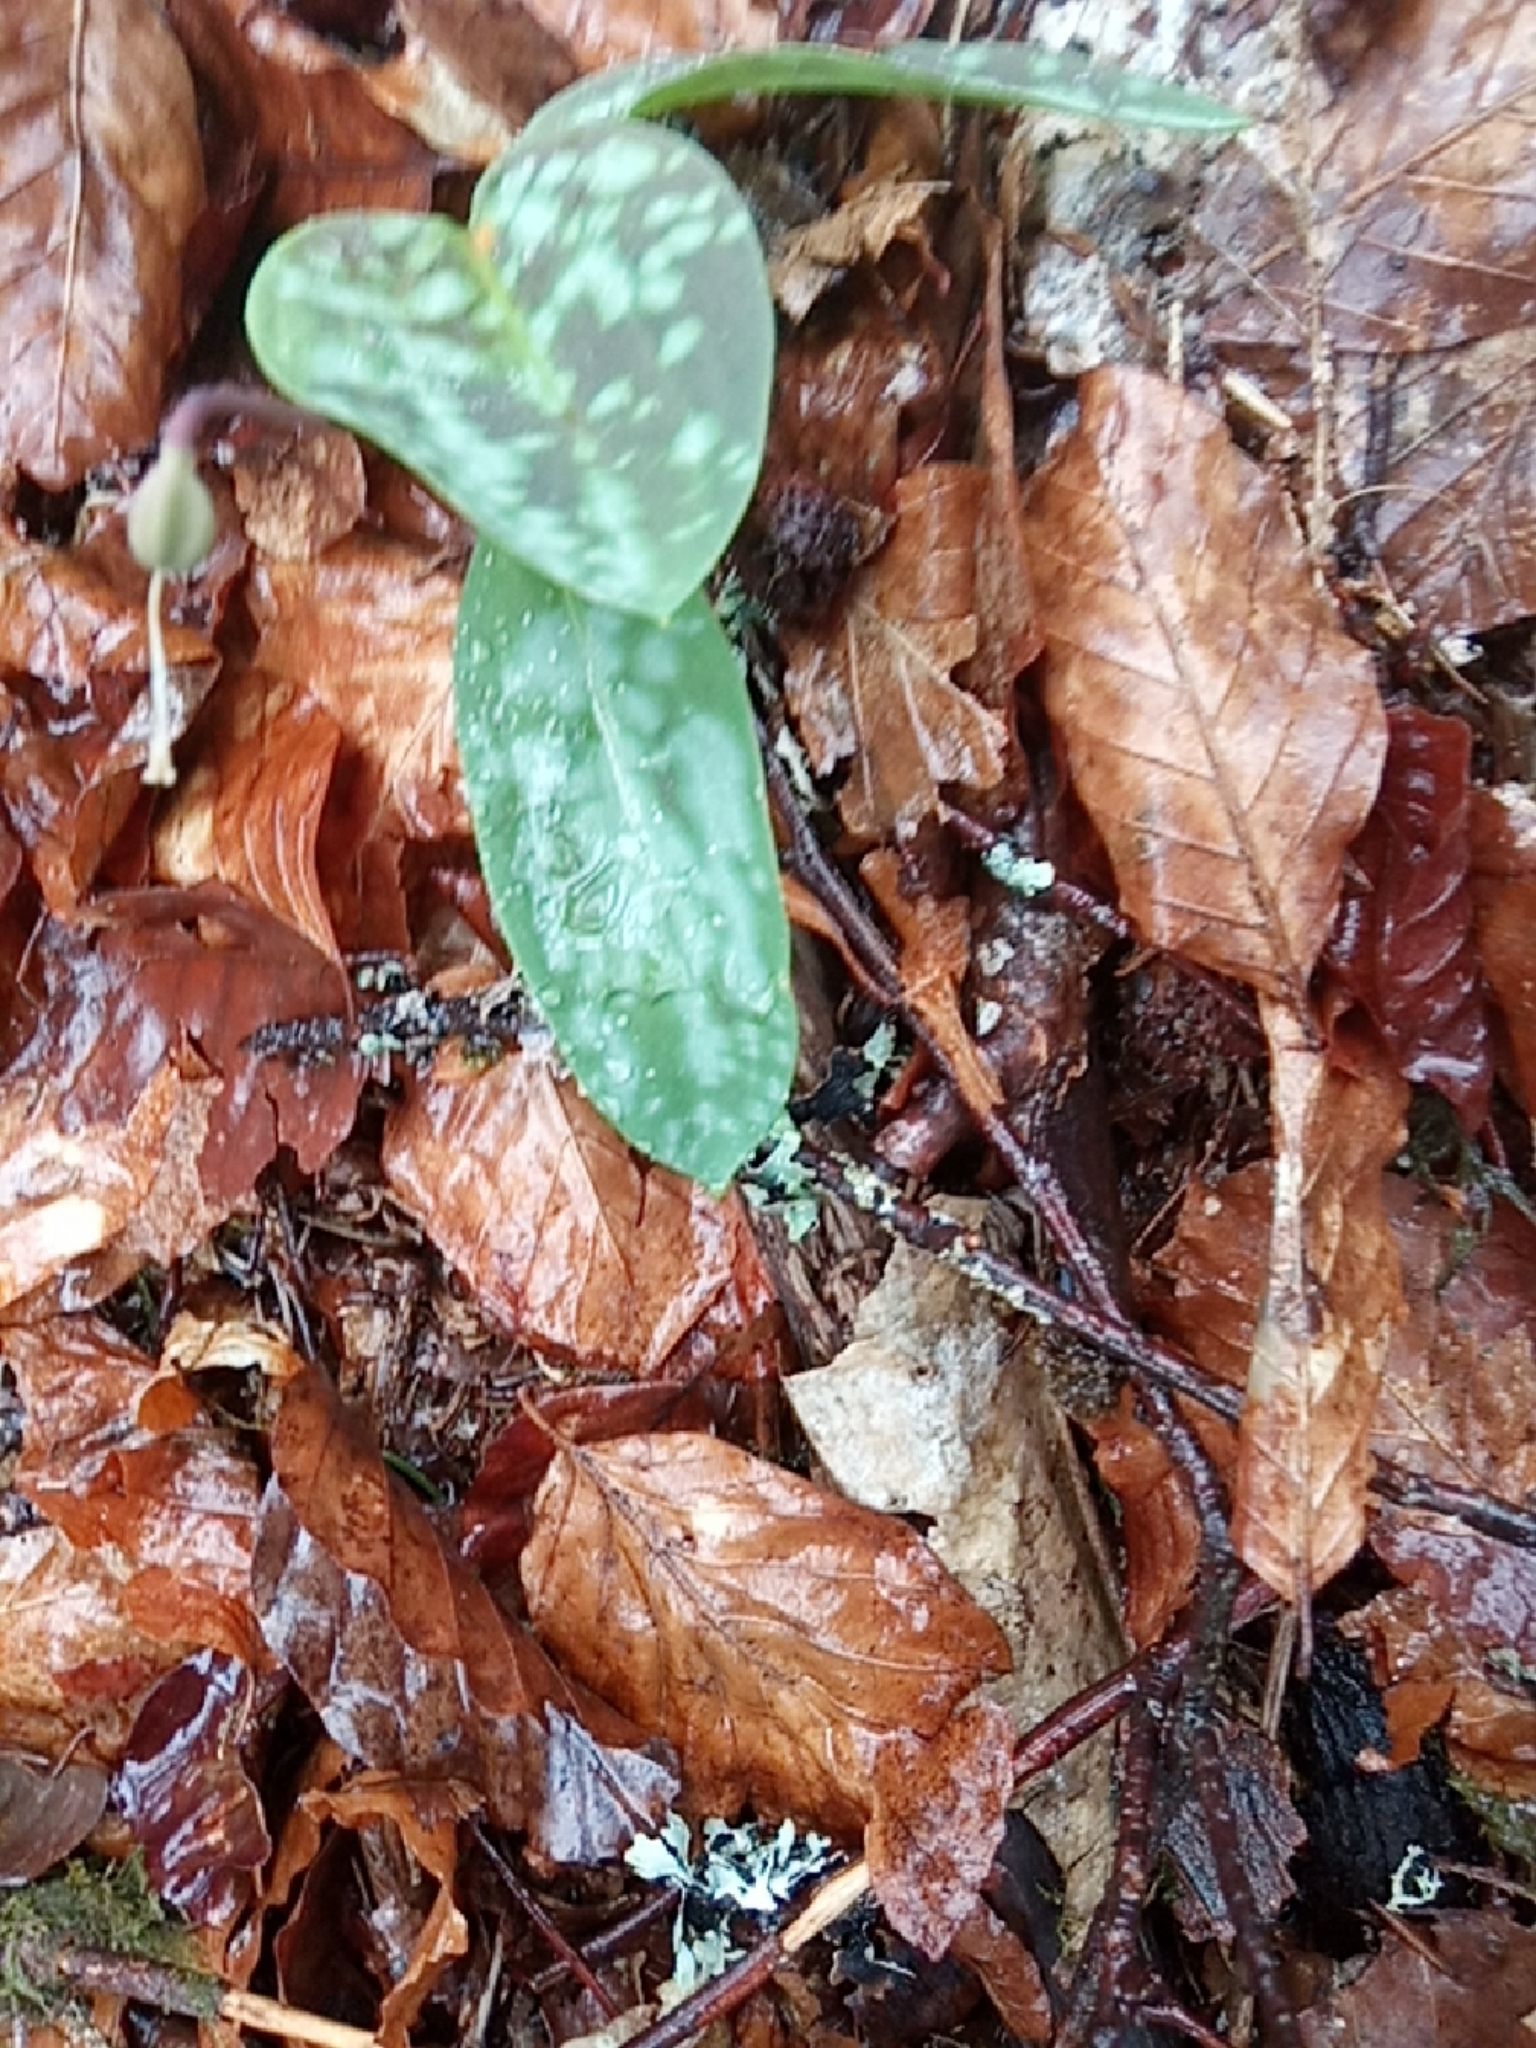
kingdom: Plantae
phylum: Tracheophyta
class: Liliopsida
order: Liliales
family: Liliaceae
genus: Erythronium
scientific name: Erythronium dens-canis
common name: Dog's-tooth-violet
